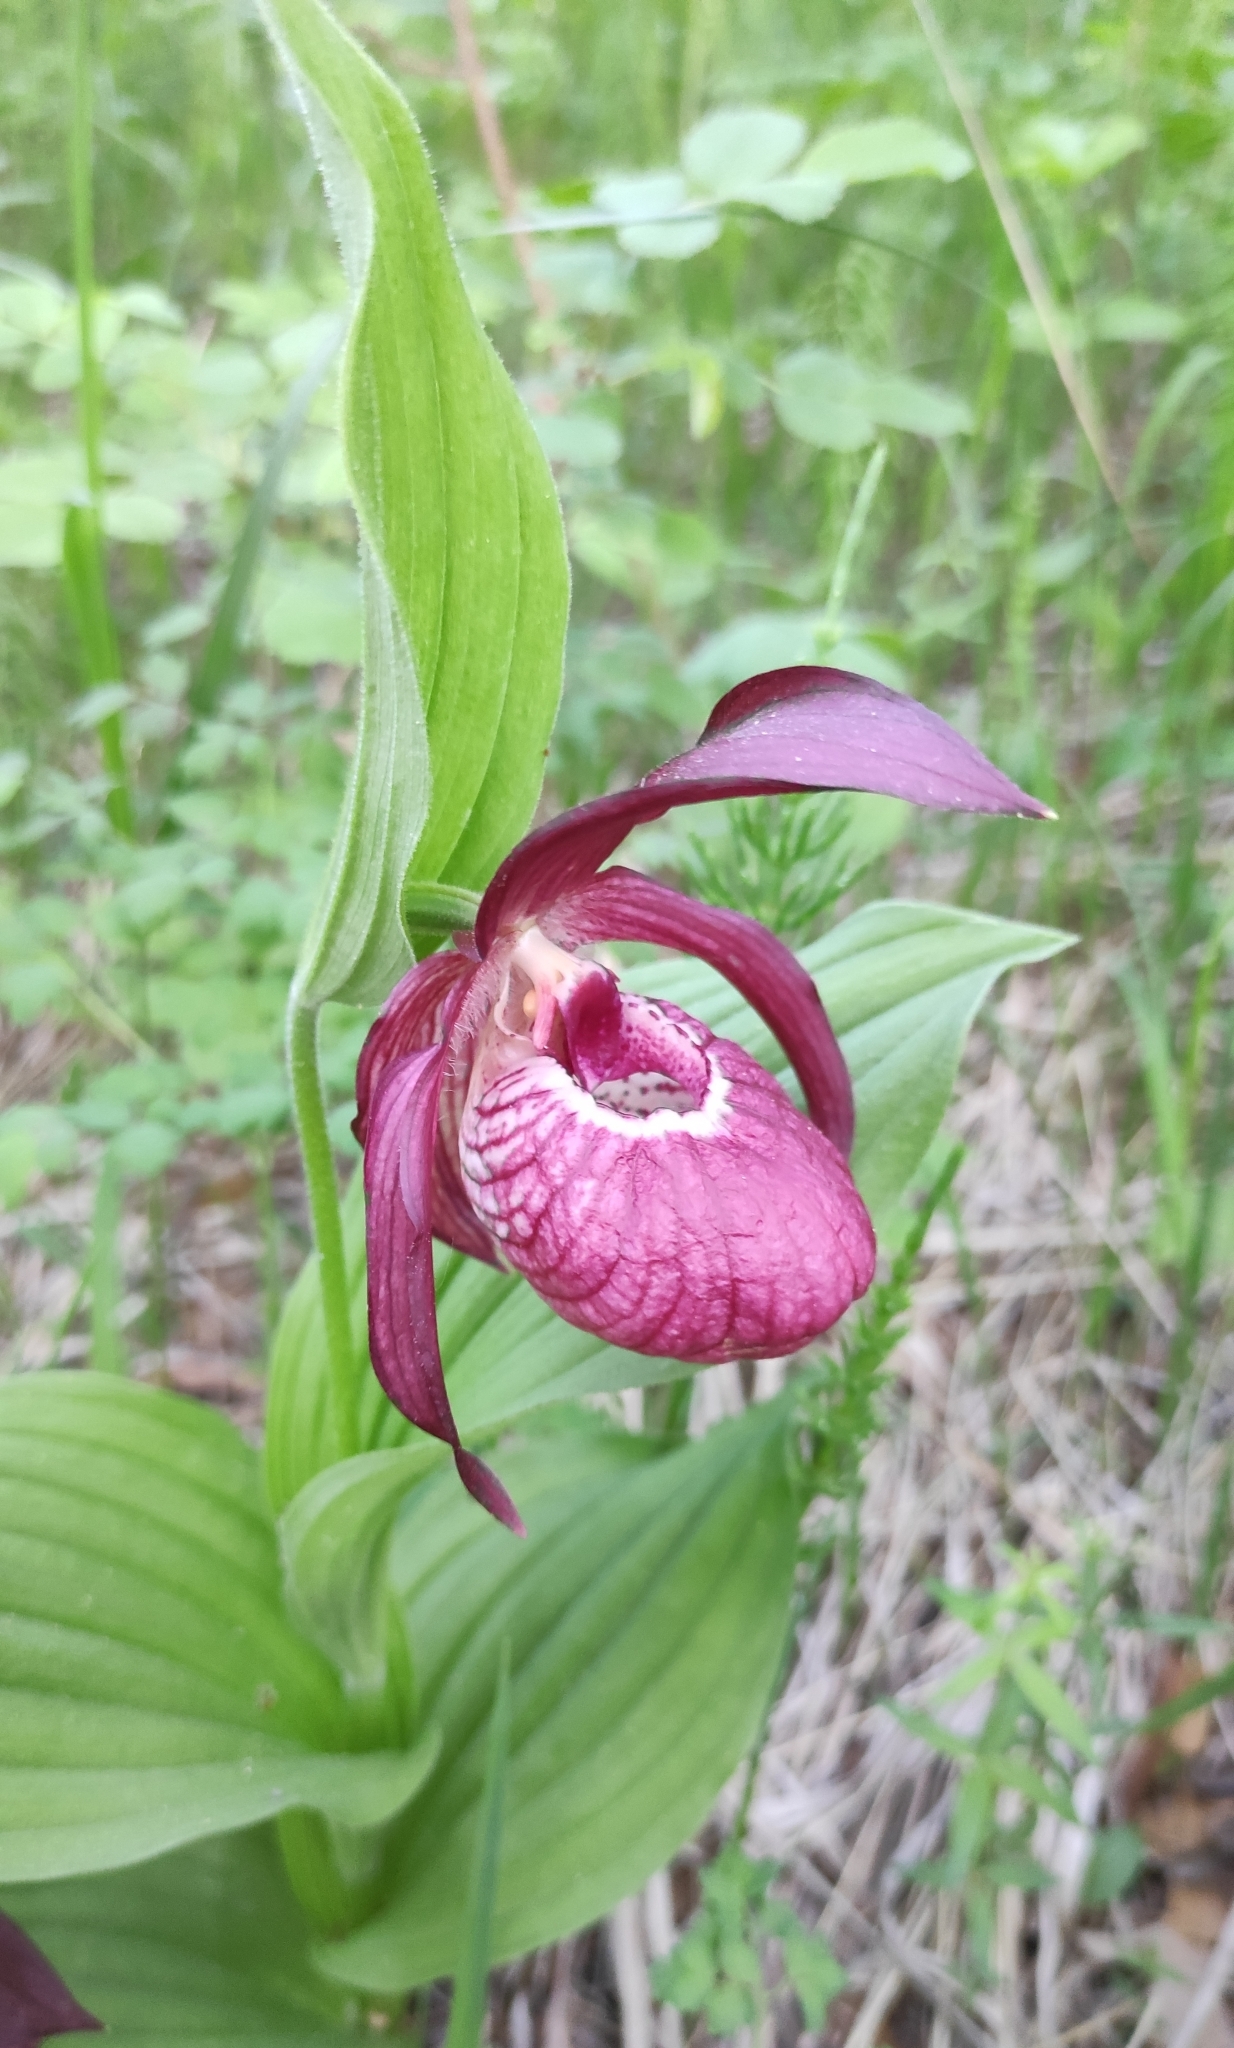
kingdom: Plantae
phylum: Tracheophyta
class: Liliopsida
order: Asparagales
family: Orchidaceae
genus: Cypripedium
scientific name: Cypripedium ventricosum
